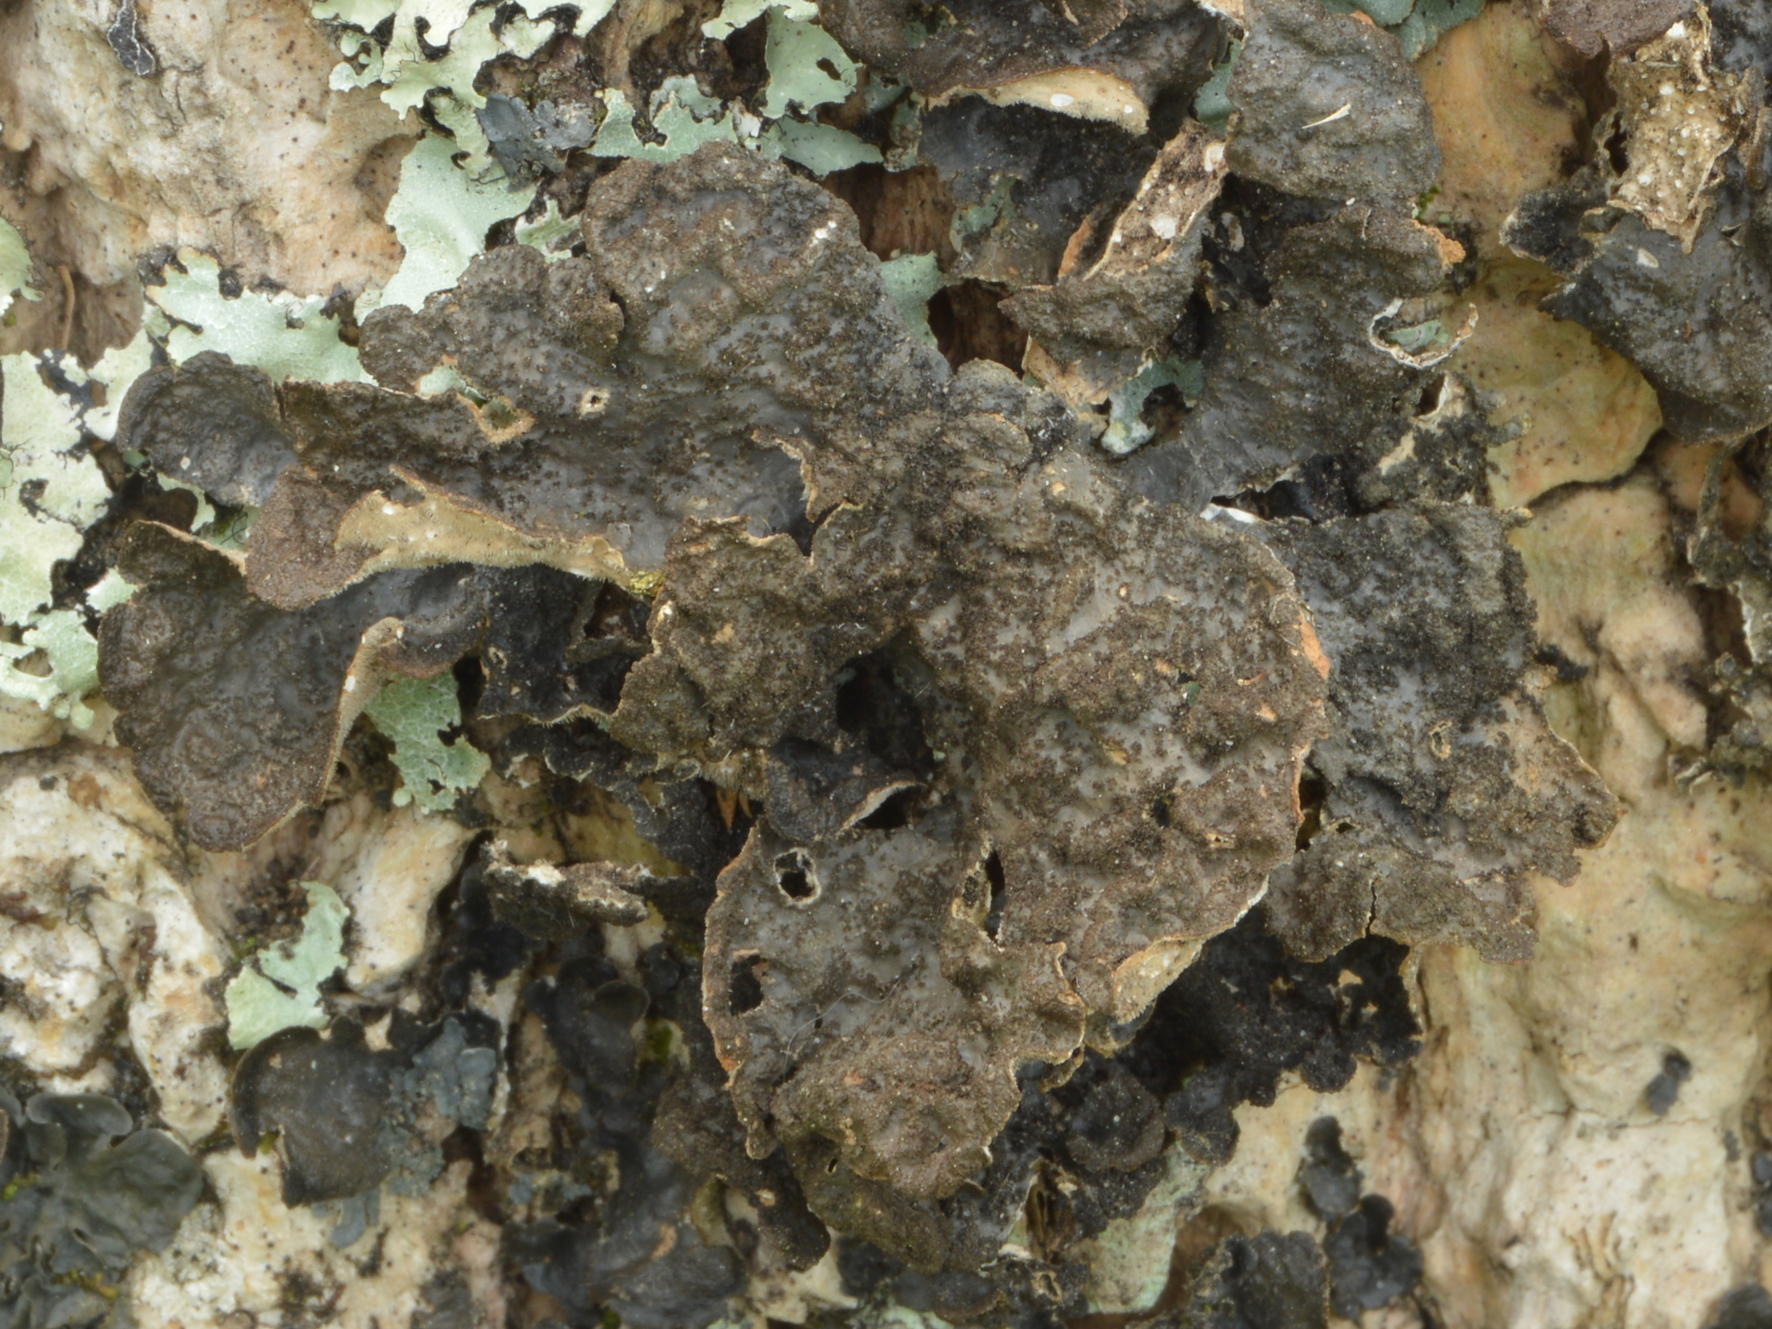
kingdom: Fungi
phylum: Ascomycota
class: Lecanoromycetes
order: Peltigerales
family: Lobariaceae
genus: Sticta
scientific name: Sticta fuliginosa
